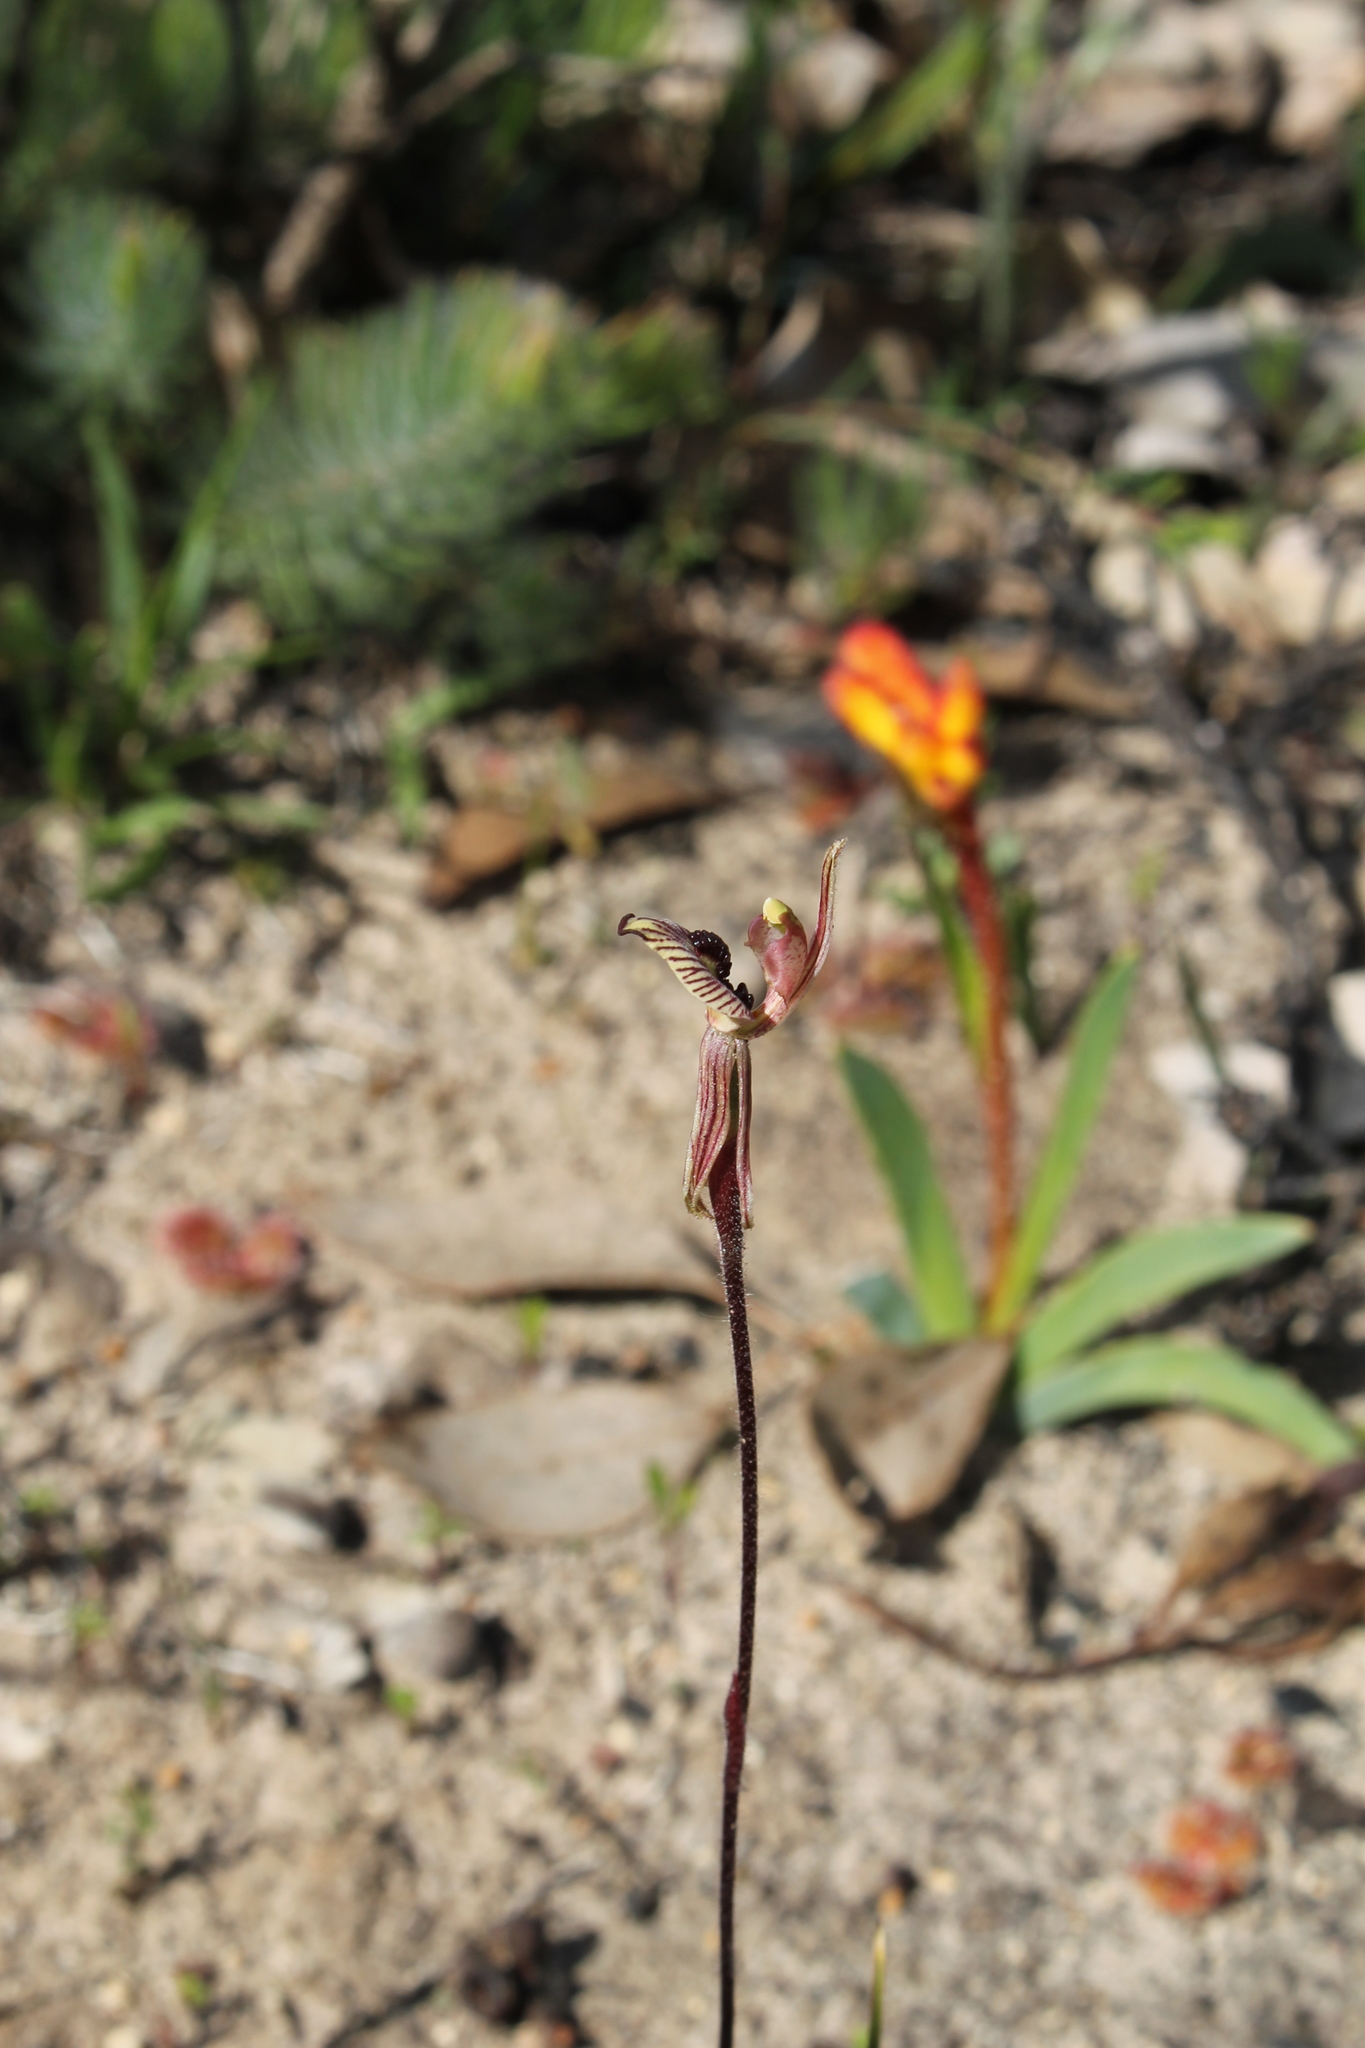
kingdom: Plantae
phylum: Tracheophyta
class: Liliopsida
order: Asparagales
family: Orchidaceae
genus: Caladenia
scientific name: Caladenia cairnsiana
